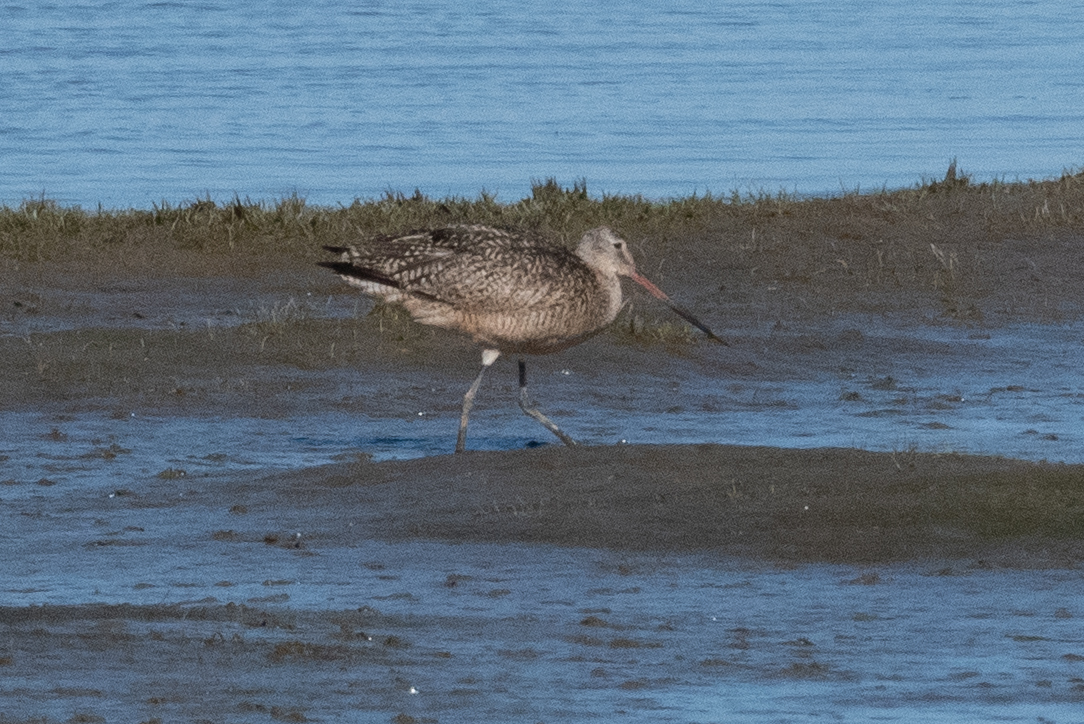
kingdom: Animalia
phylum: Chordata
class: Aves
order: Charadriiformes
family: Scolopacidae
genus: Limosa
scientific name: Limosa fedoa
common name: Marbled godwit
